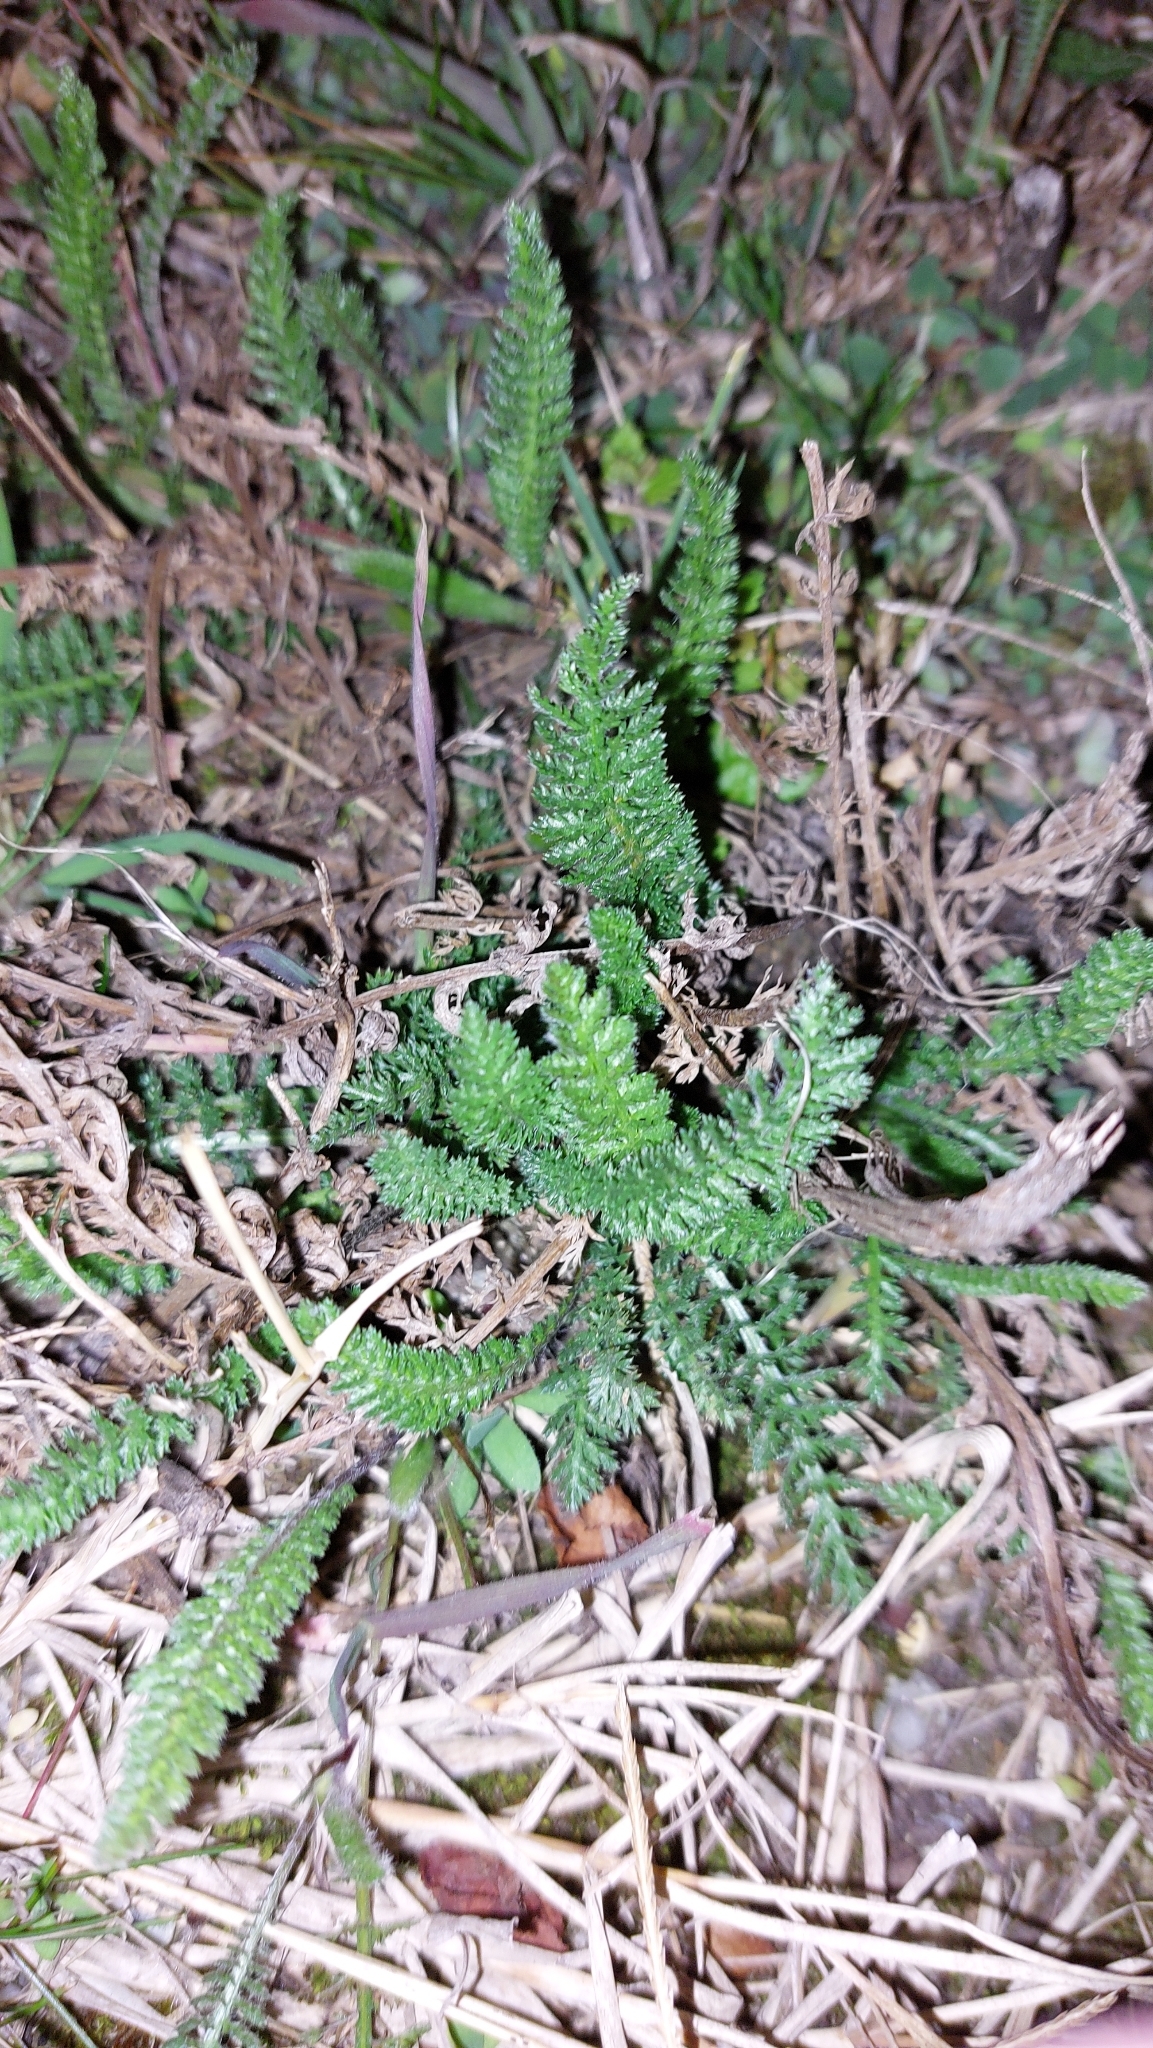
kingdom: Plantae
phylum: Tracheophyta
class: Magnoliopsida
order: Asterales
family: Asteraceae
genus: Achillea
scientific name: Achillea millefolium
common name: Yarrow
